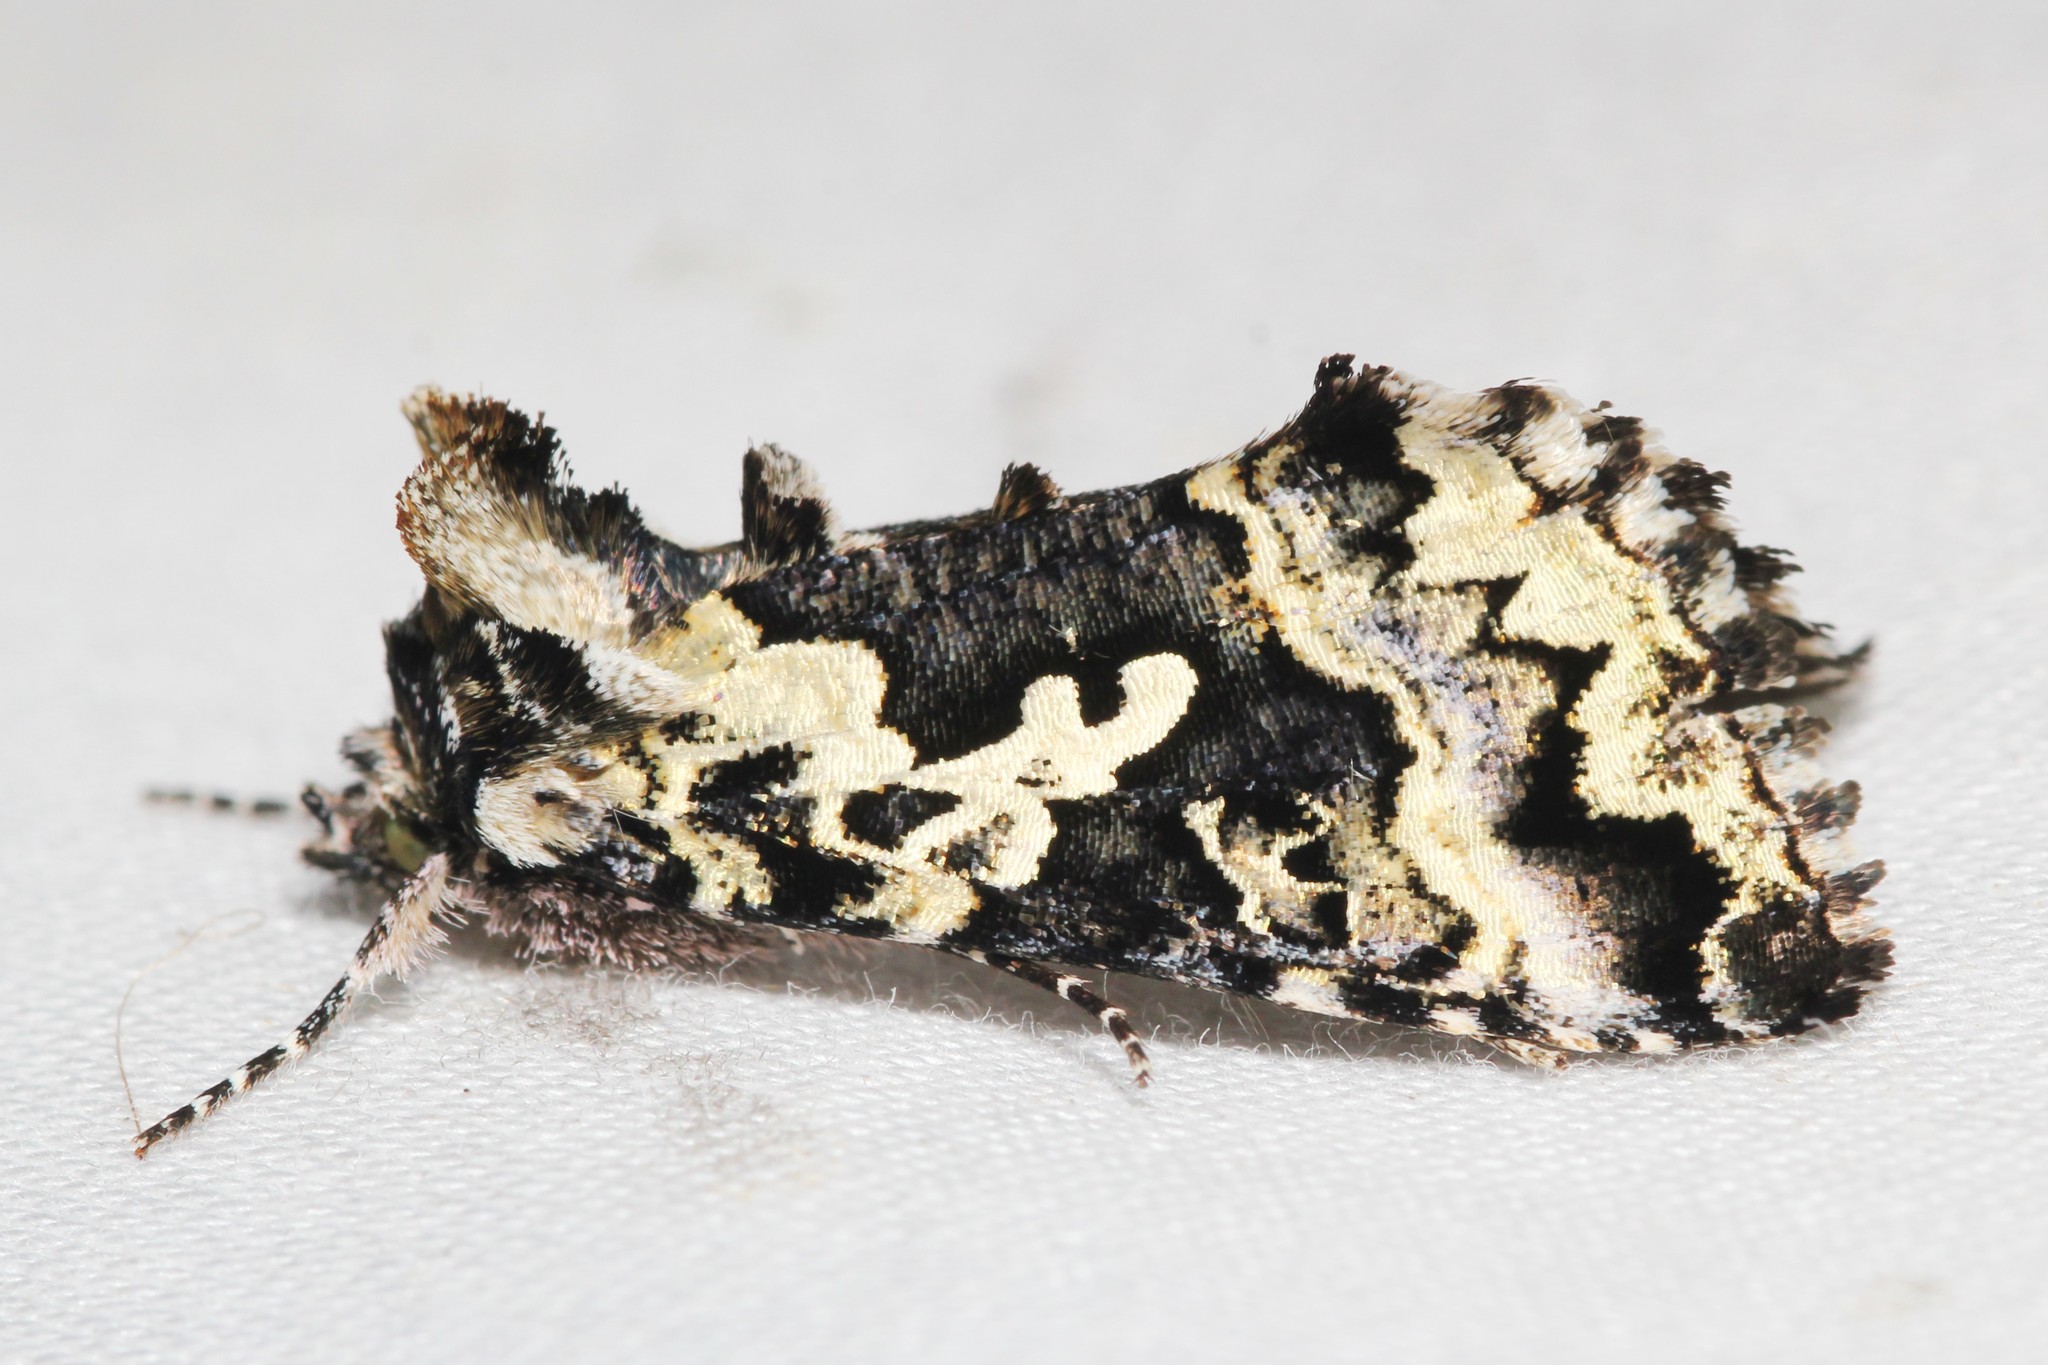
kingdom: Animalia
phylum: Arthropoda
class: Insecta
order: Lepidoptera
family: Noctuidae
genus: Syngrapha
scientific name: Syngrapha rectangula
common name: Angulated cutworm
